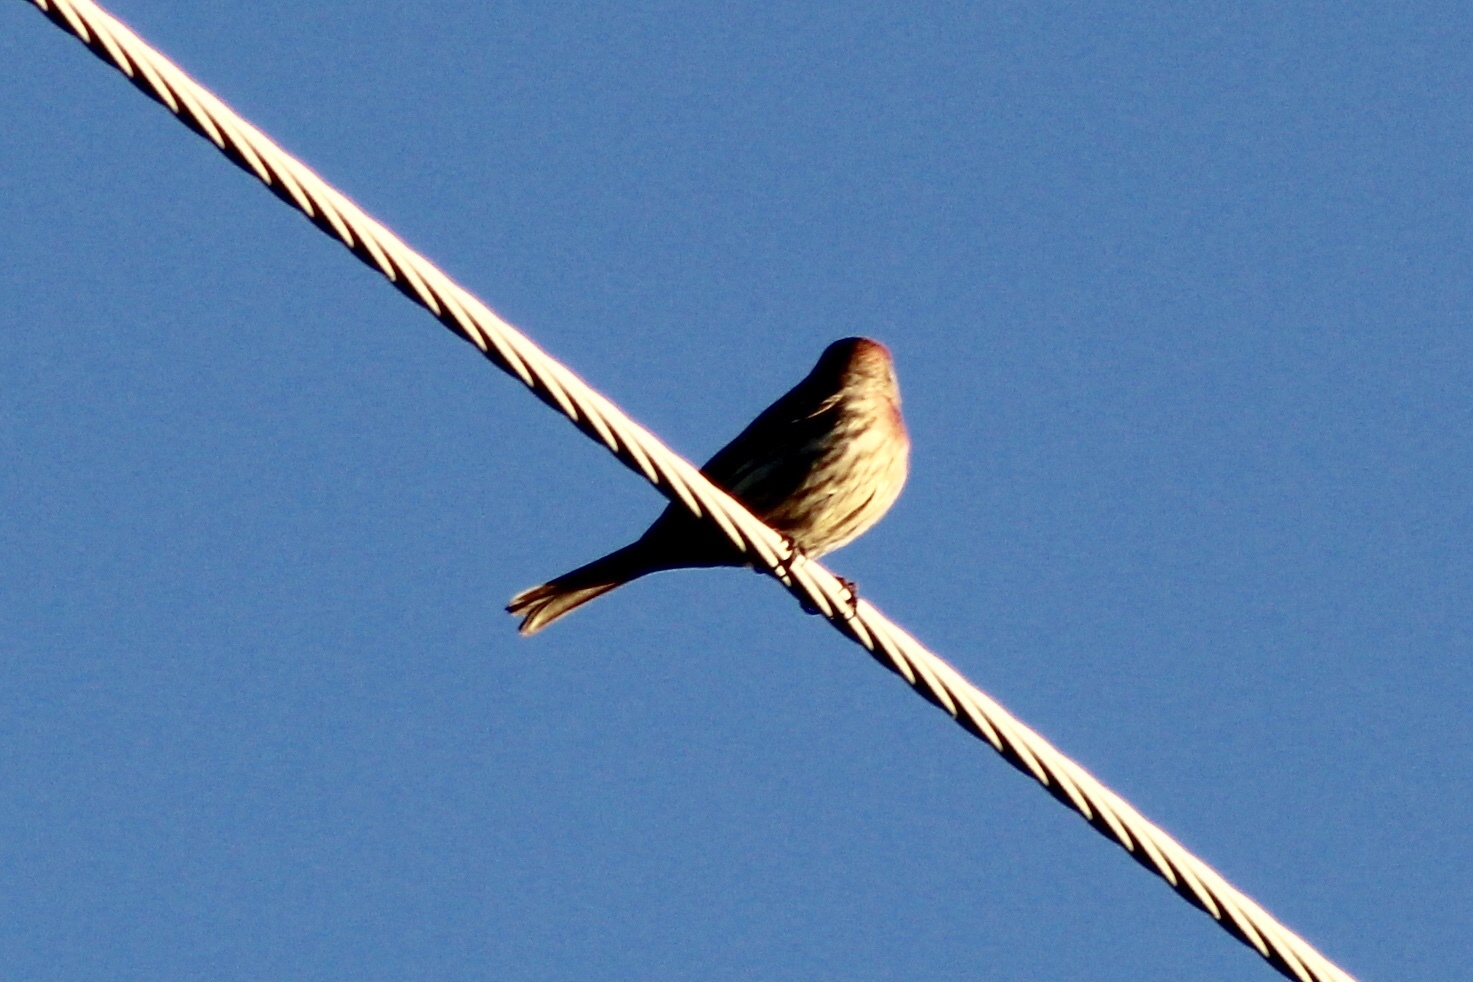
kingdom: Animalia
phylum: Chordata
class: Aves
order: Passeriformes
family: Fringillidae
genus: Haemorhous
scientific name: Haemorhous mexicanus
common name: House finch
